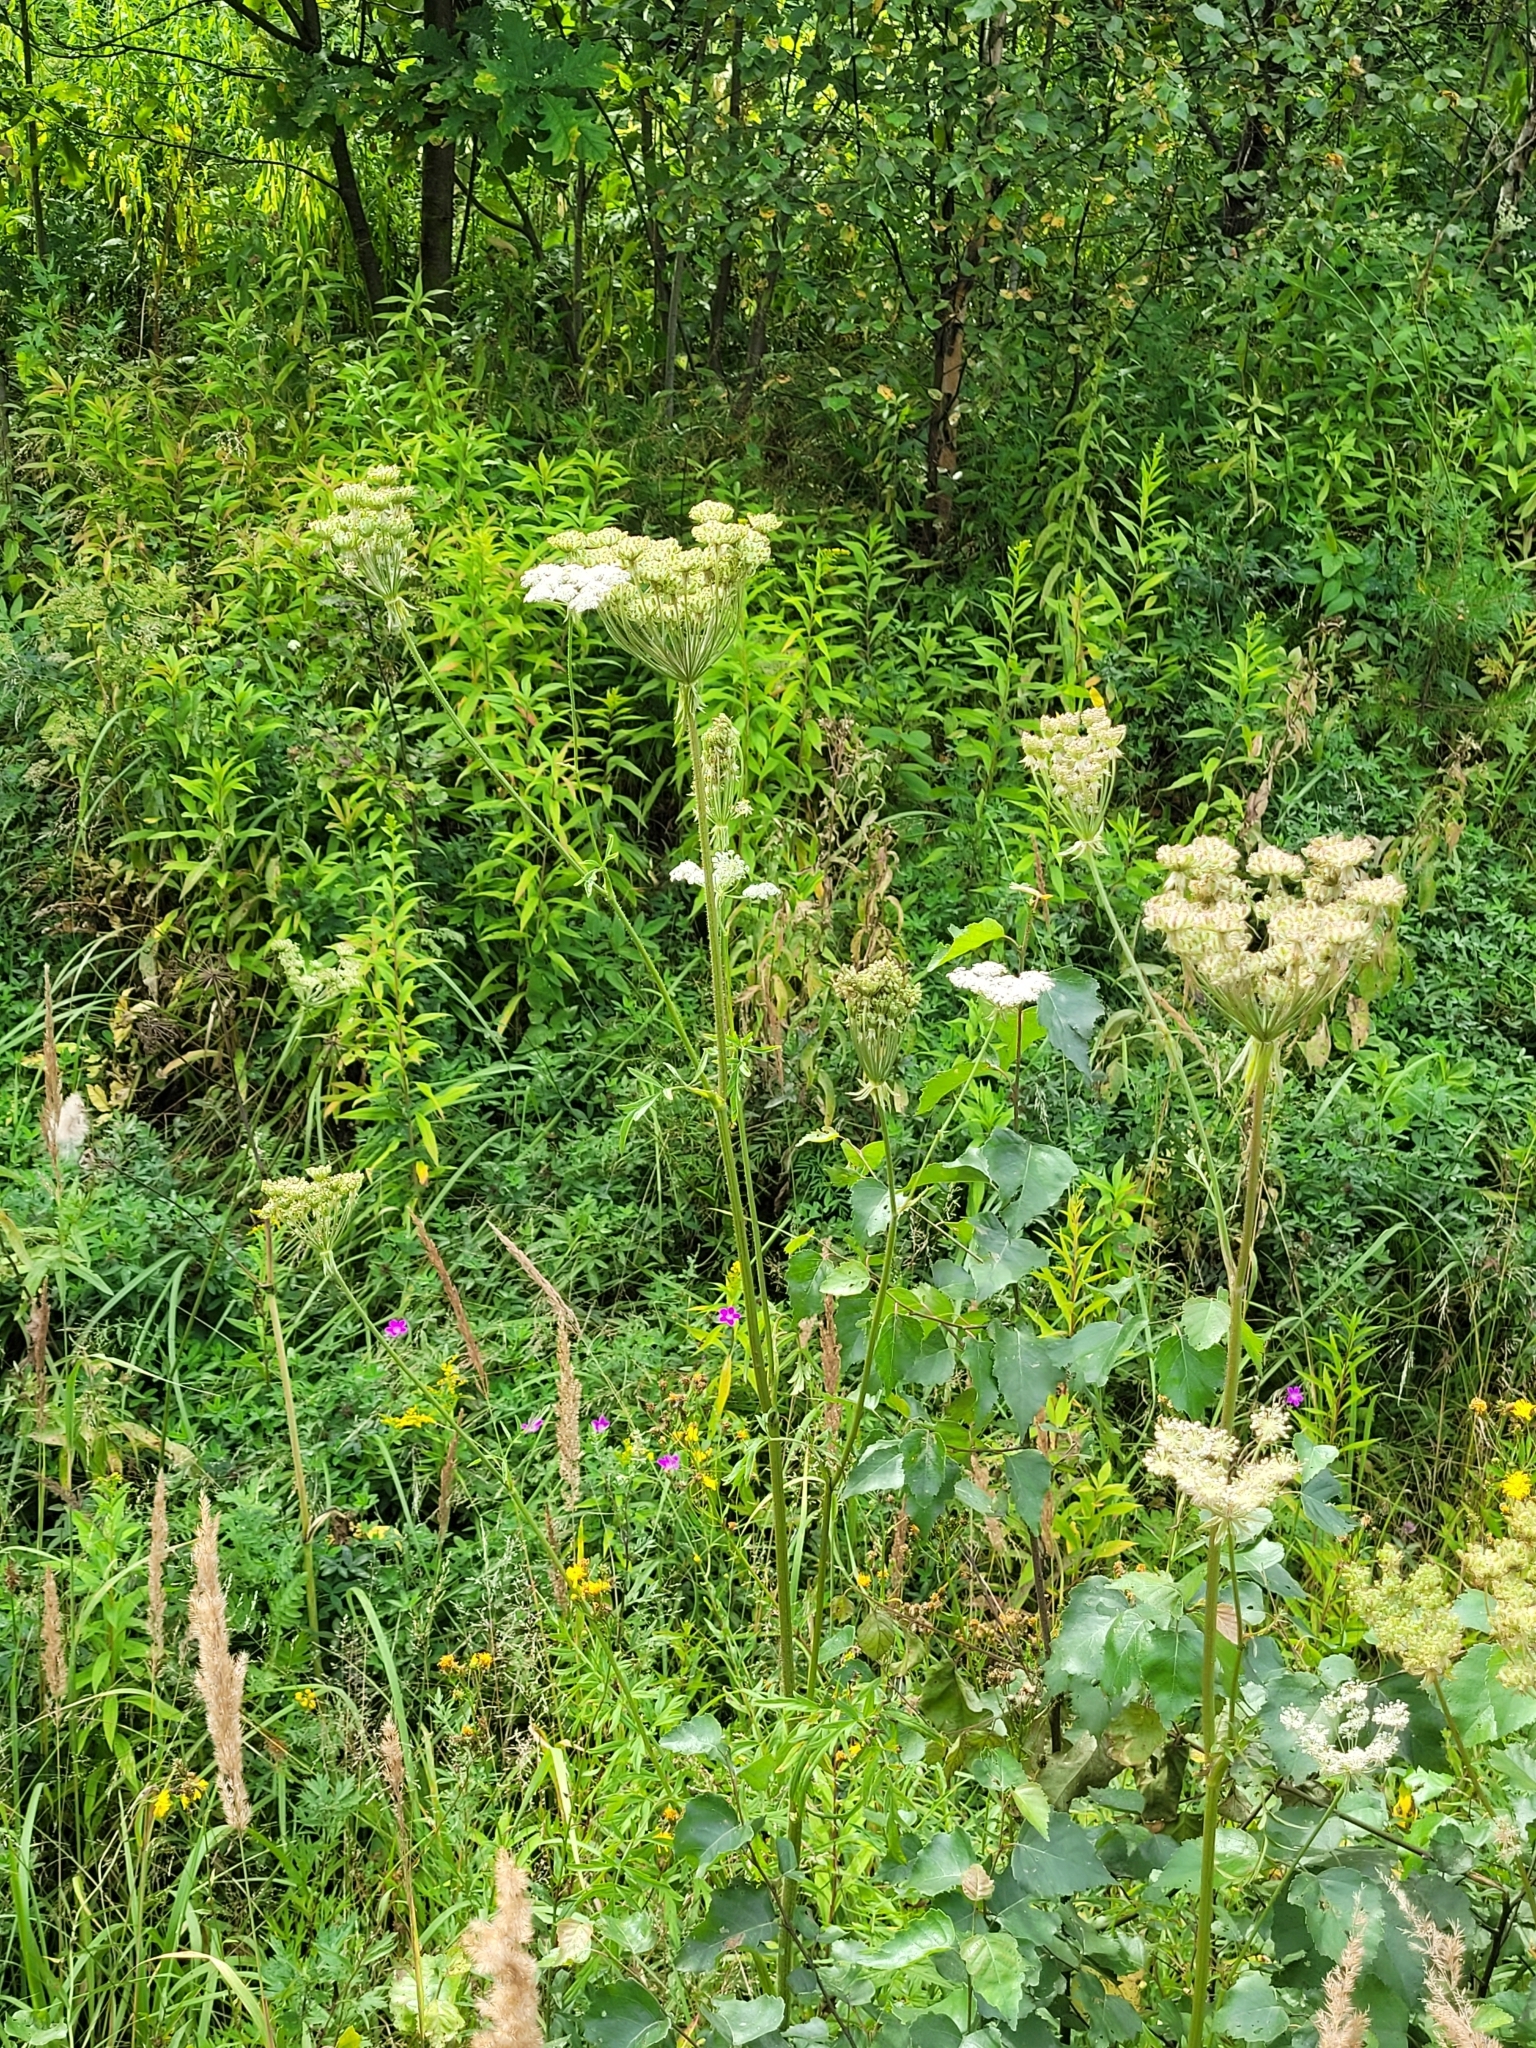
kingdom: Plantae
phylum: Tracheophyta
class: Magnoliopsida
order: Apiales
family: Apiaceae
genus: Silphiodaucus
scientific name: Silphiodaucus prutenicus
